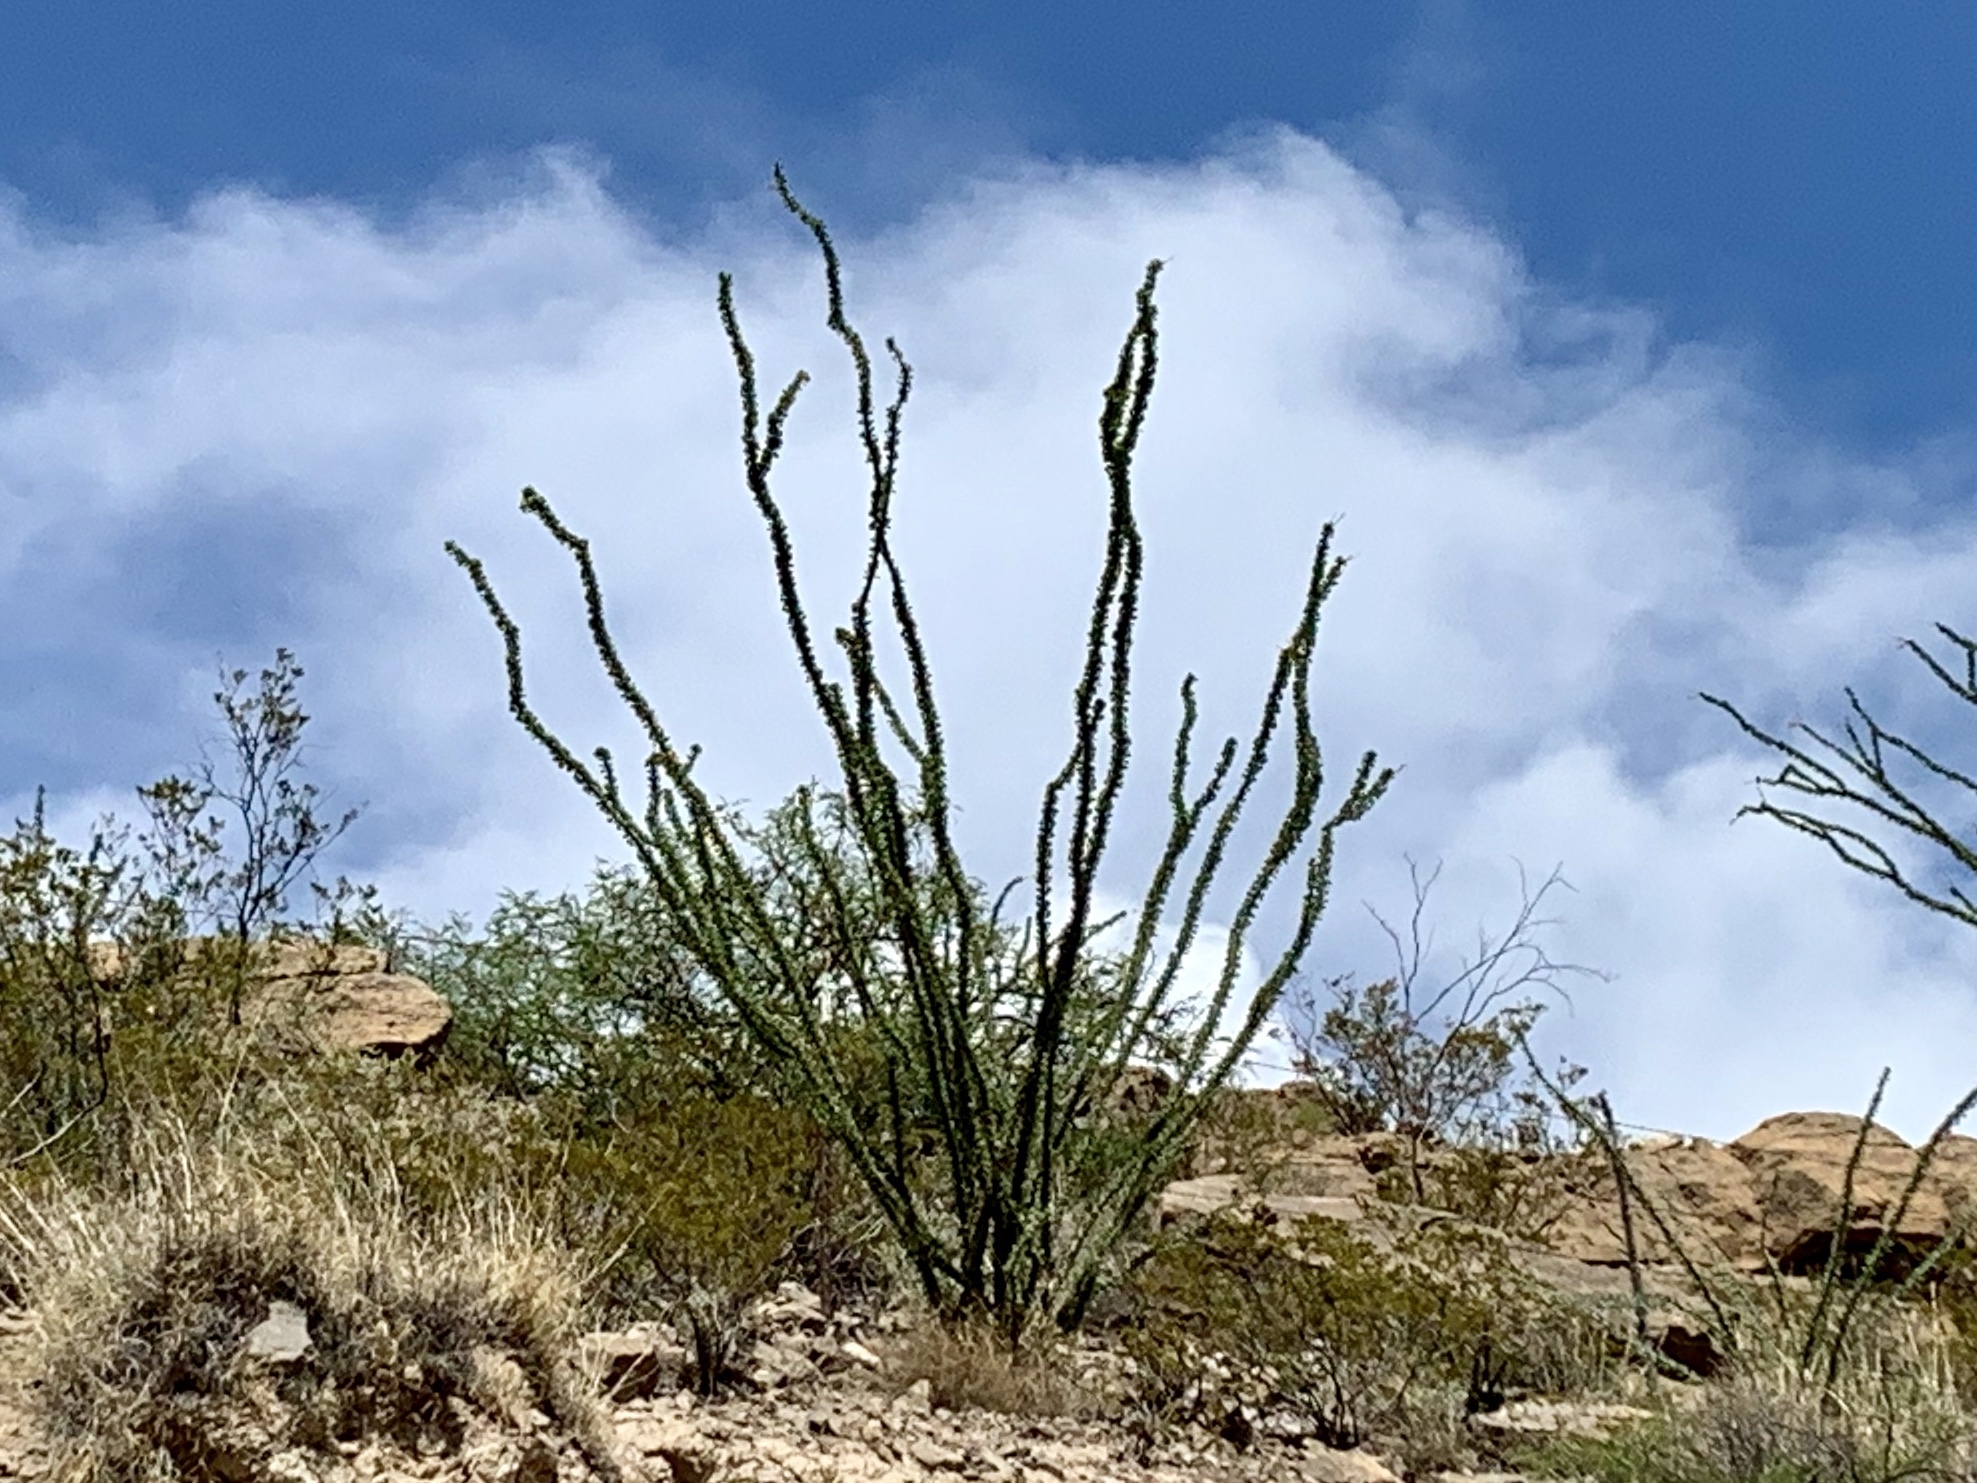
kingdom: Plantae
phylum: Tracheophyta
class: Magnoliopsida
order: Ericales
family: Fouquieriaceae
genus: Fouquieria
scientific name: Fouquieria splendens
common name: Vine-cactus
